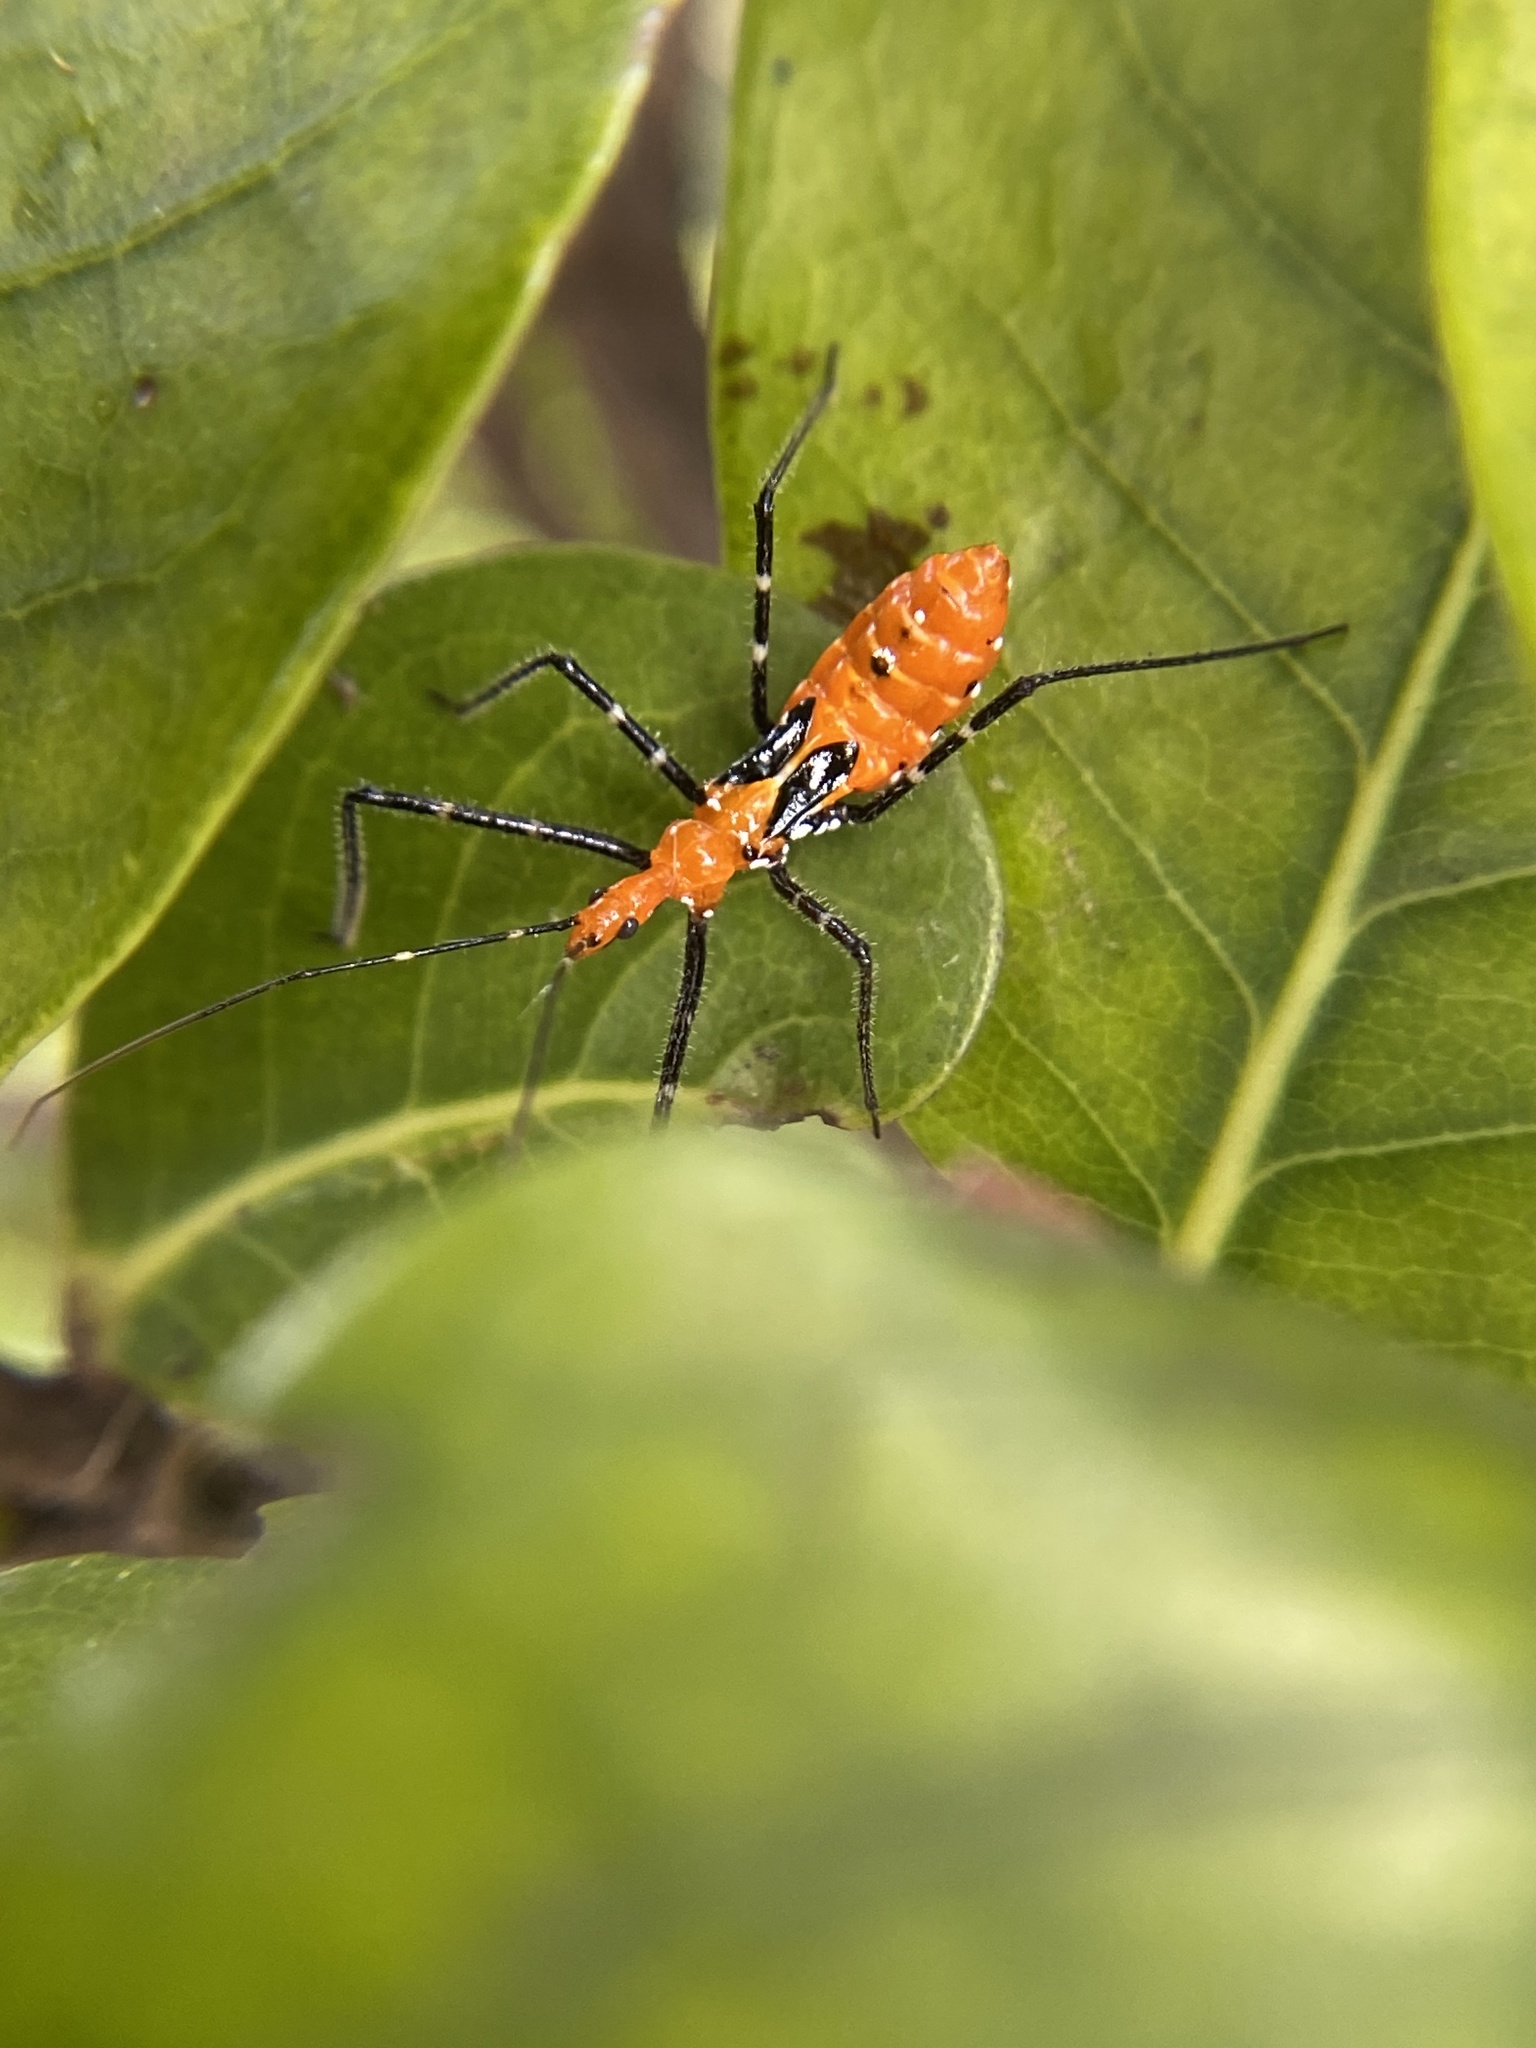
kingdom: Animalia
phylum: Arthropoda
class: Insecta
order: Hemiptera
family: Reduviidae
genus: Zelus
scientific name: Zelus longipes
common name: Milkweed assassin bug
